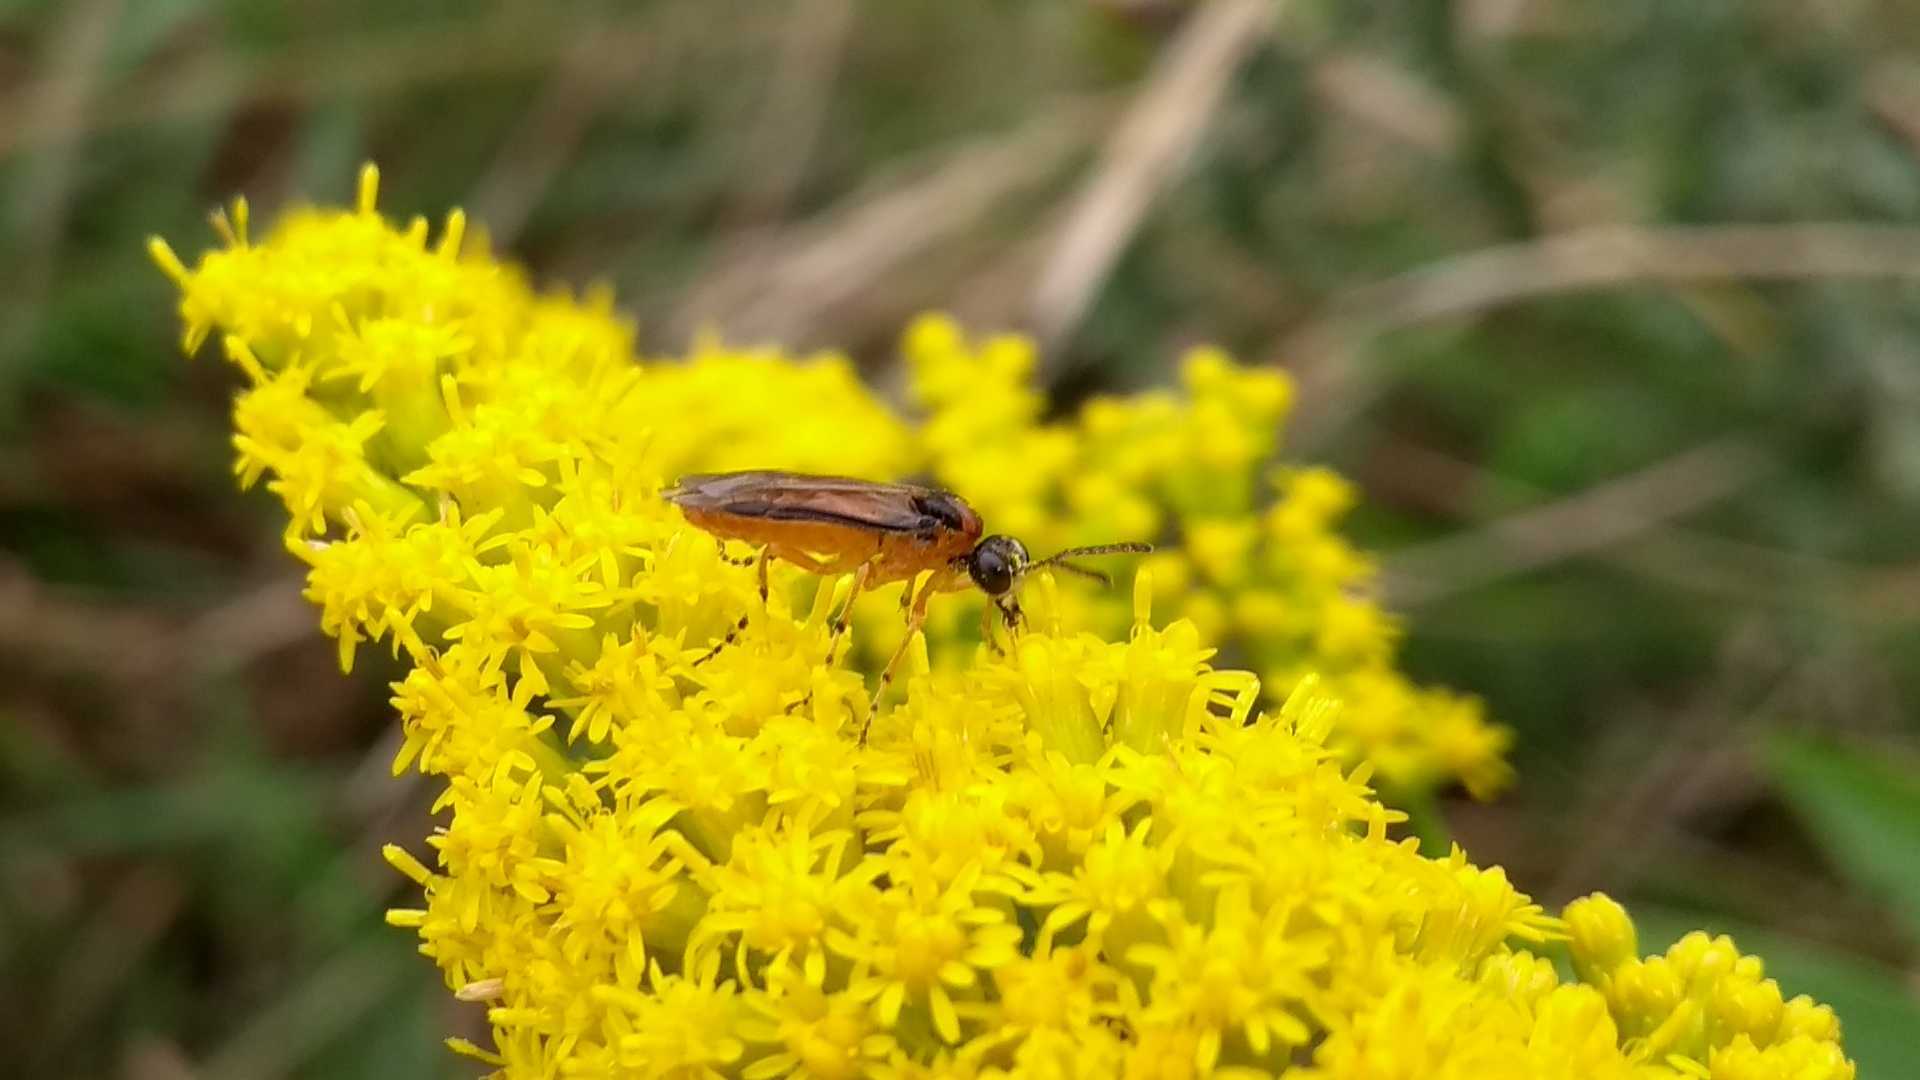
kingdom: Animalia
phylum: Arthropoda
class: Insecta
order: Hymenoptera
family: Tenthredinidae
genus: Athalia
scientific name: Athalia rosae
